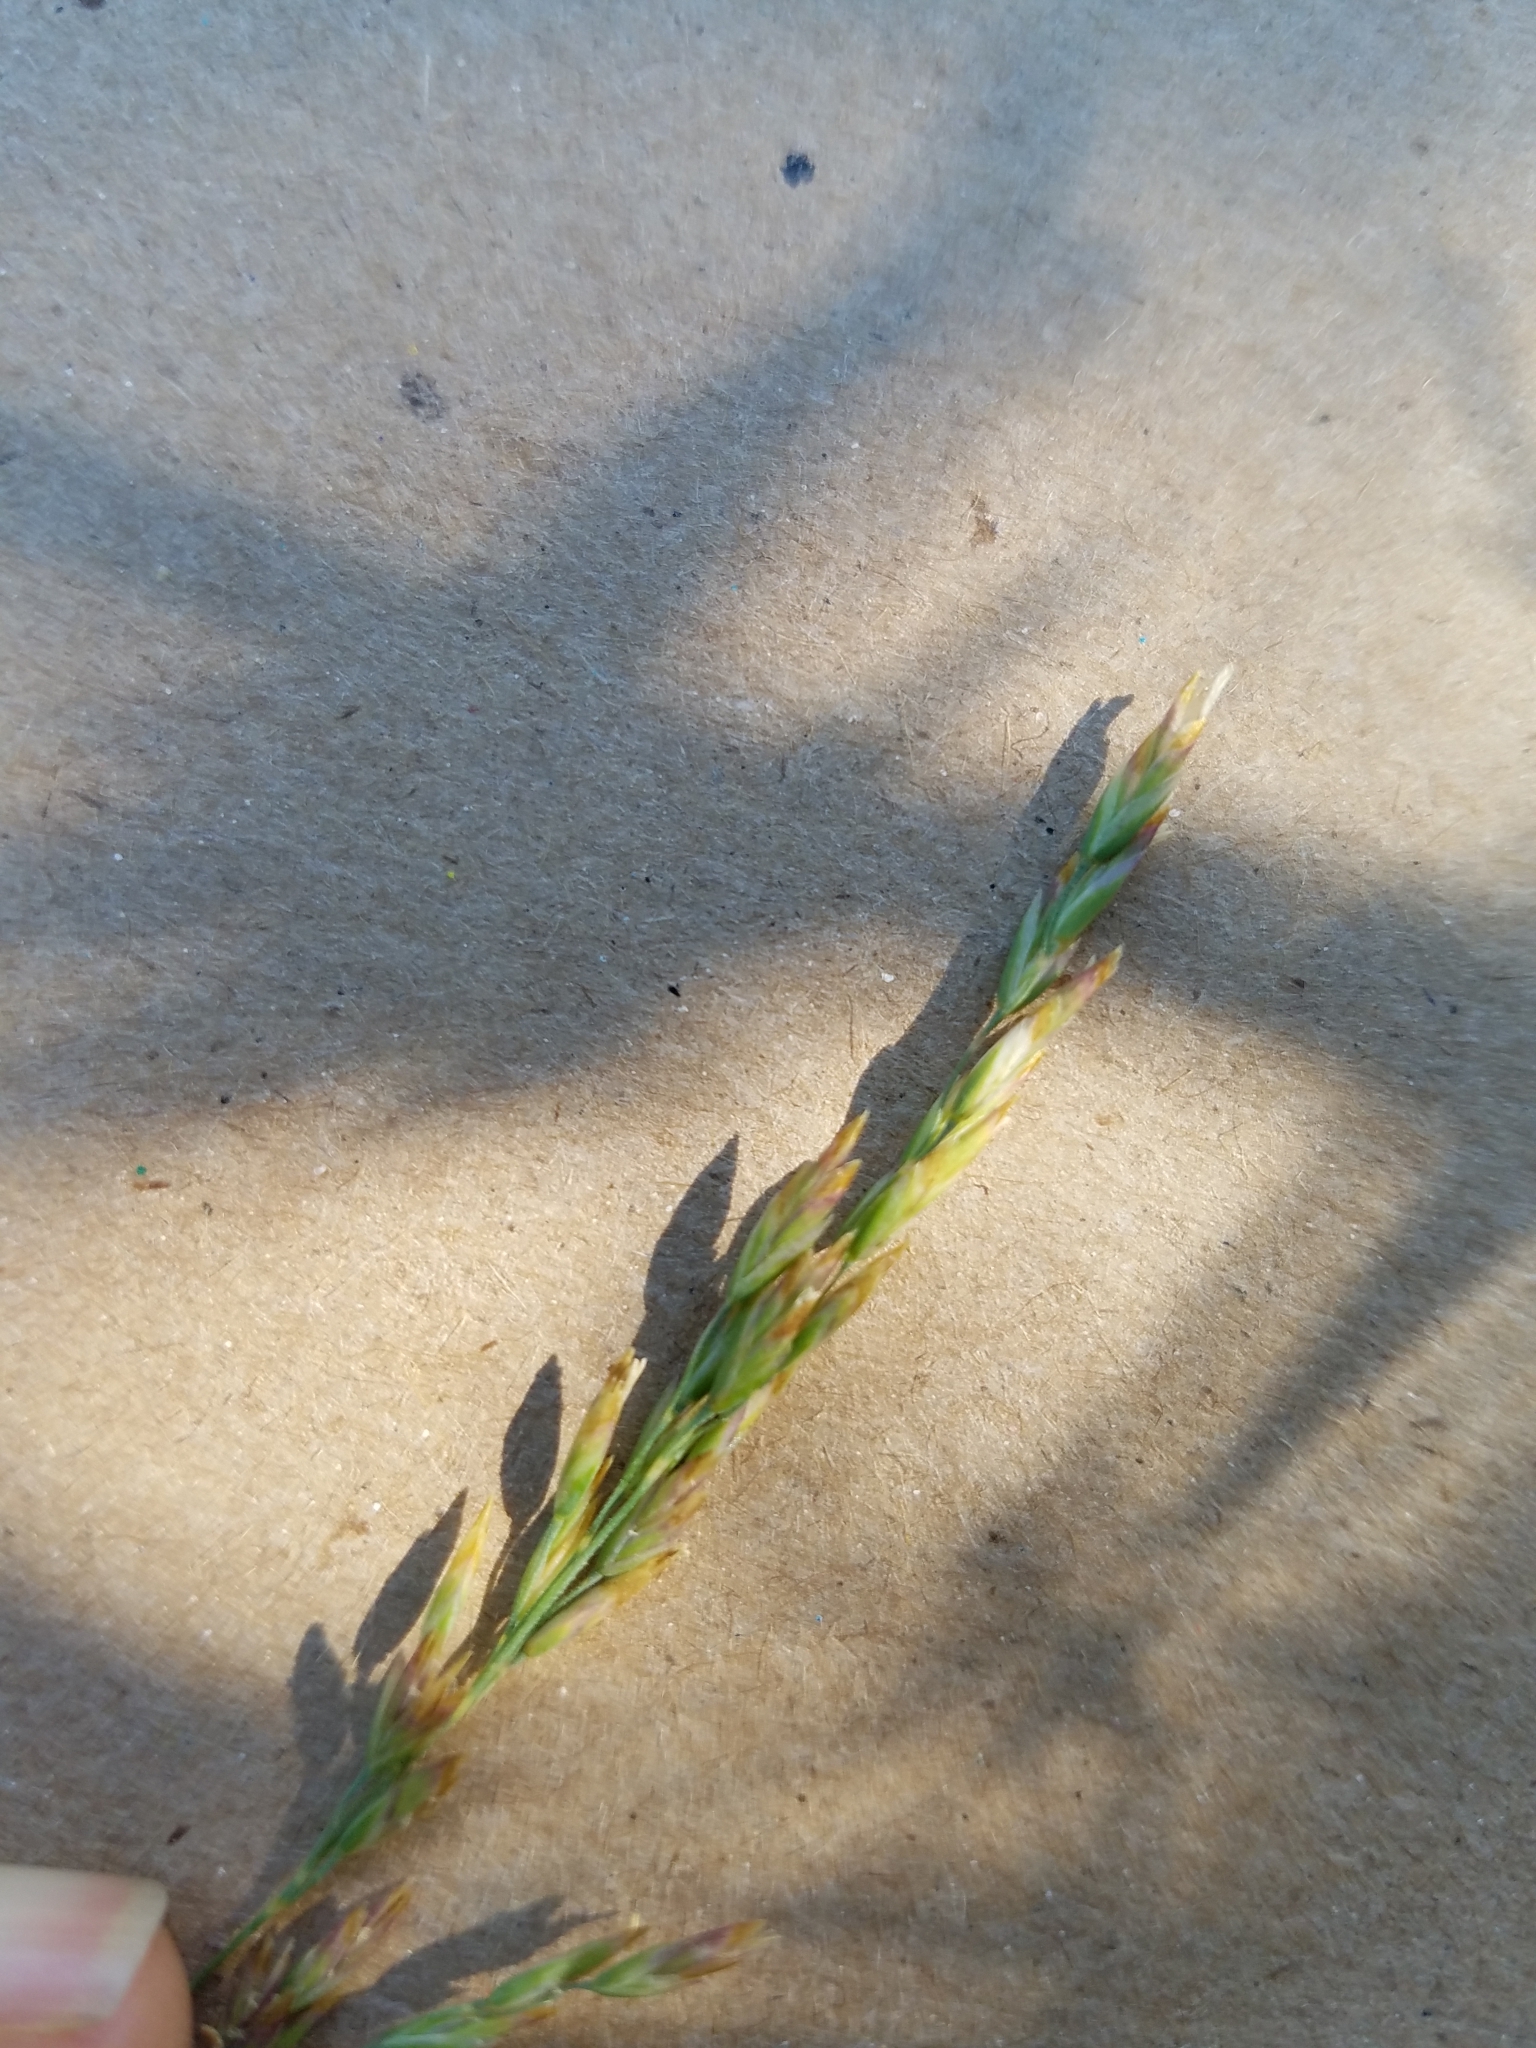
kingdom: Plantae
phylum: Tracheophyta
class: Liliopsida
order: Poales
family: Poaceae
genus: Poa
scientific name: Poa secunda
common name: Sandberg bluegrass
